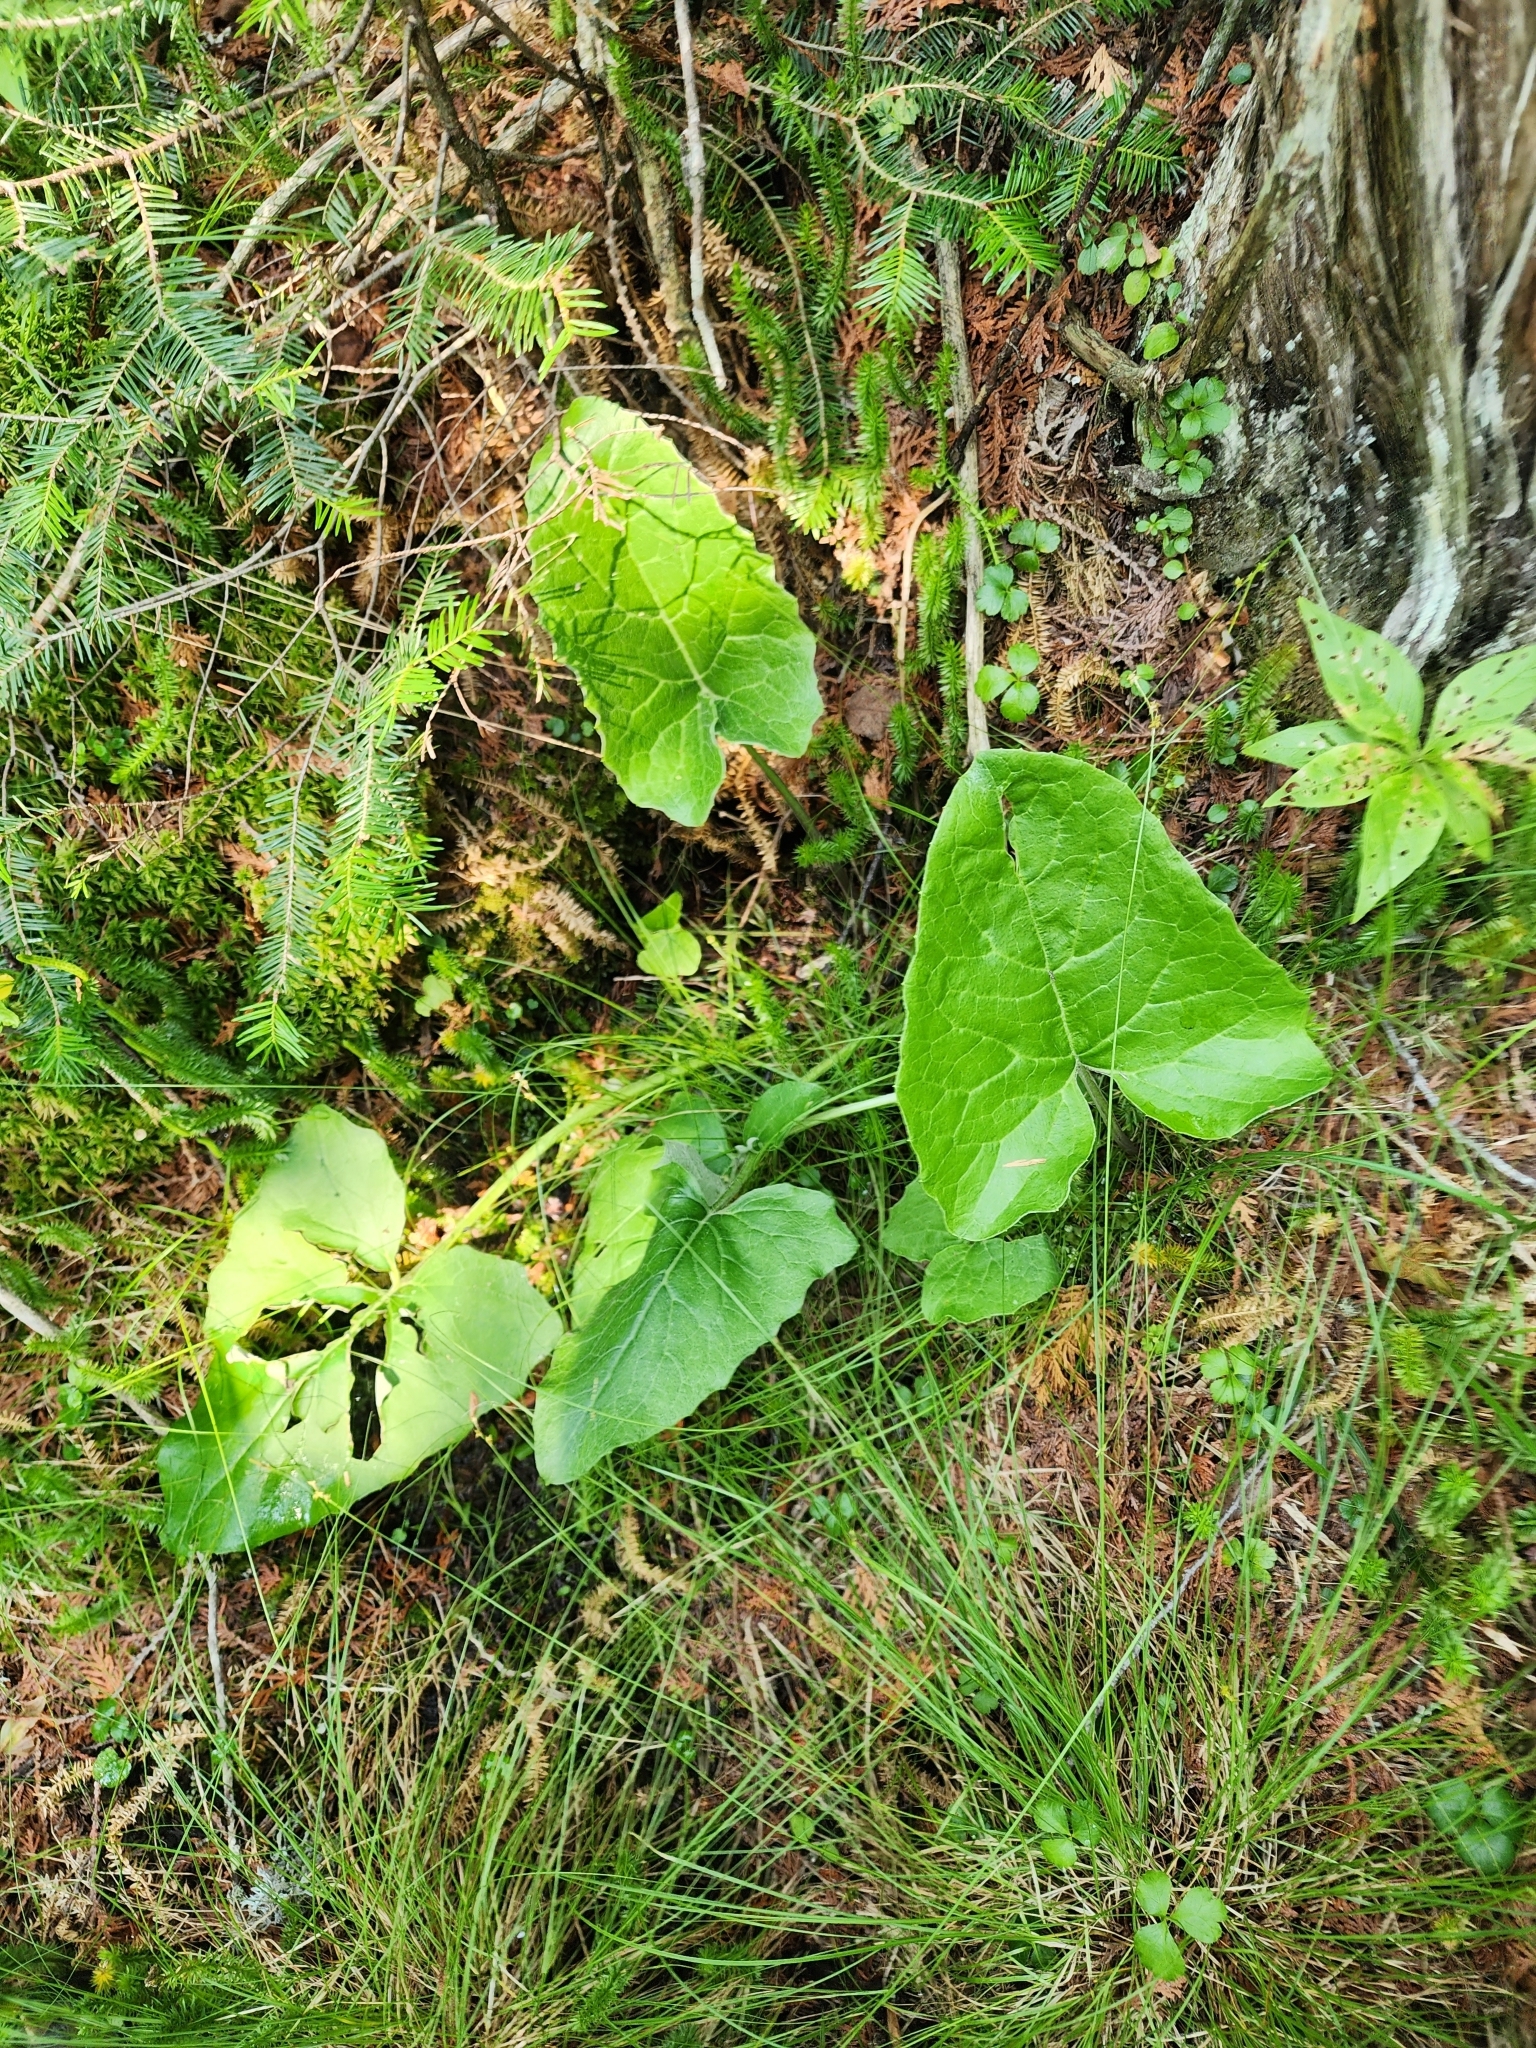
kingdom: Plantae
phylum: Tracheophyta
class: Magnoliopsida
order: Asterales
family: Asteraceae
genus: Petasites
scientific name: Petasites frigidus
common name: Arctic butterbur
